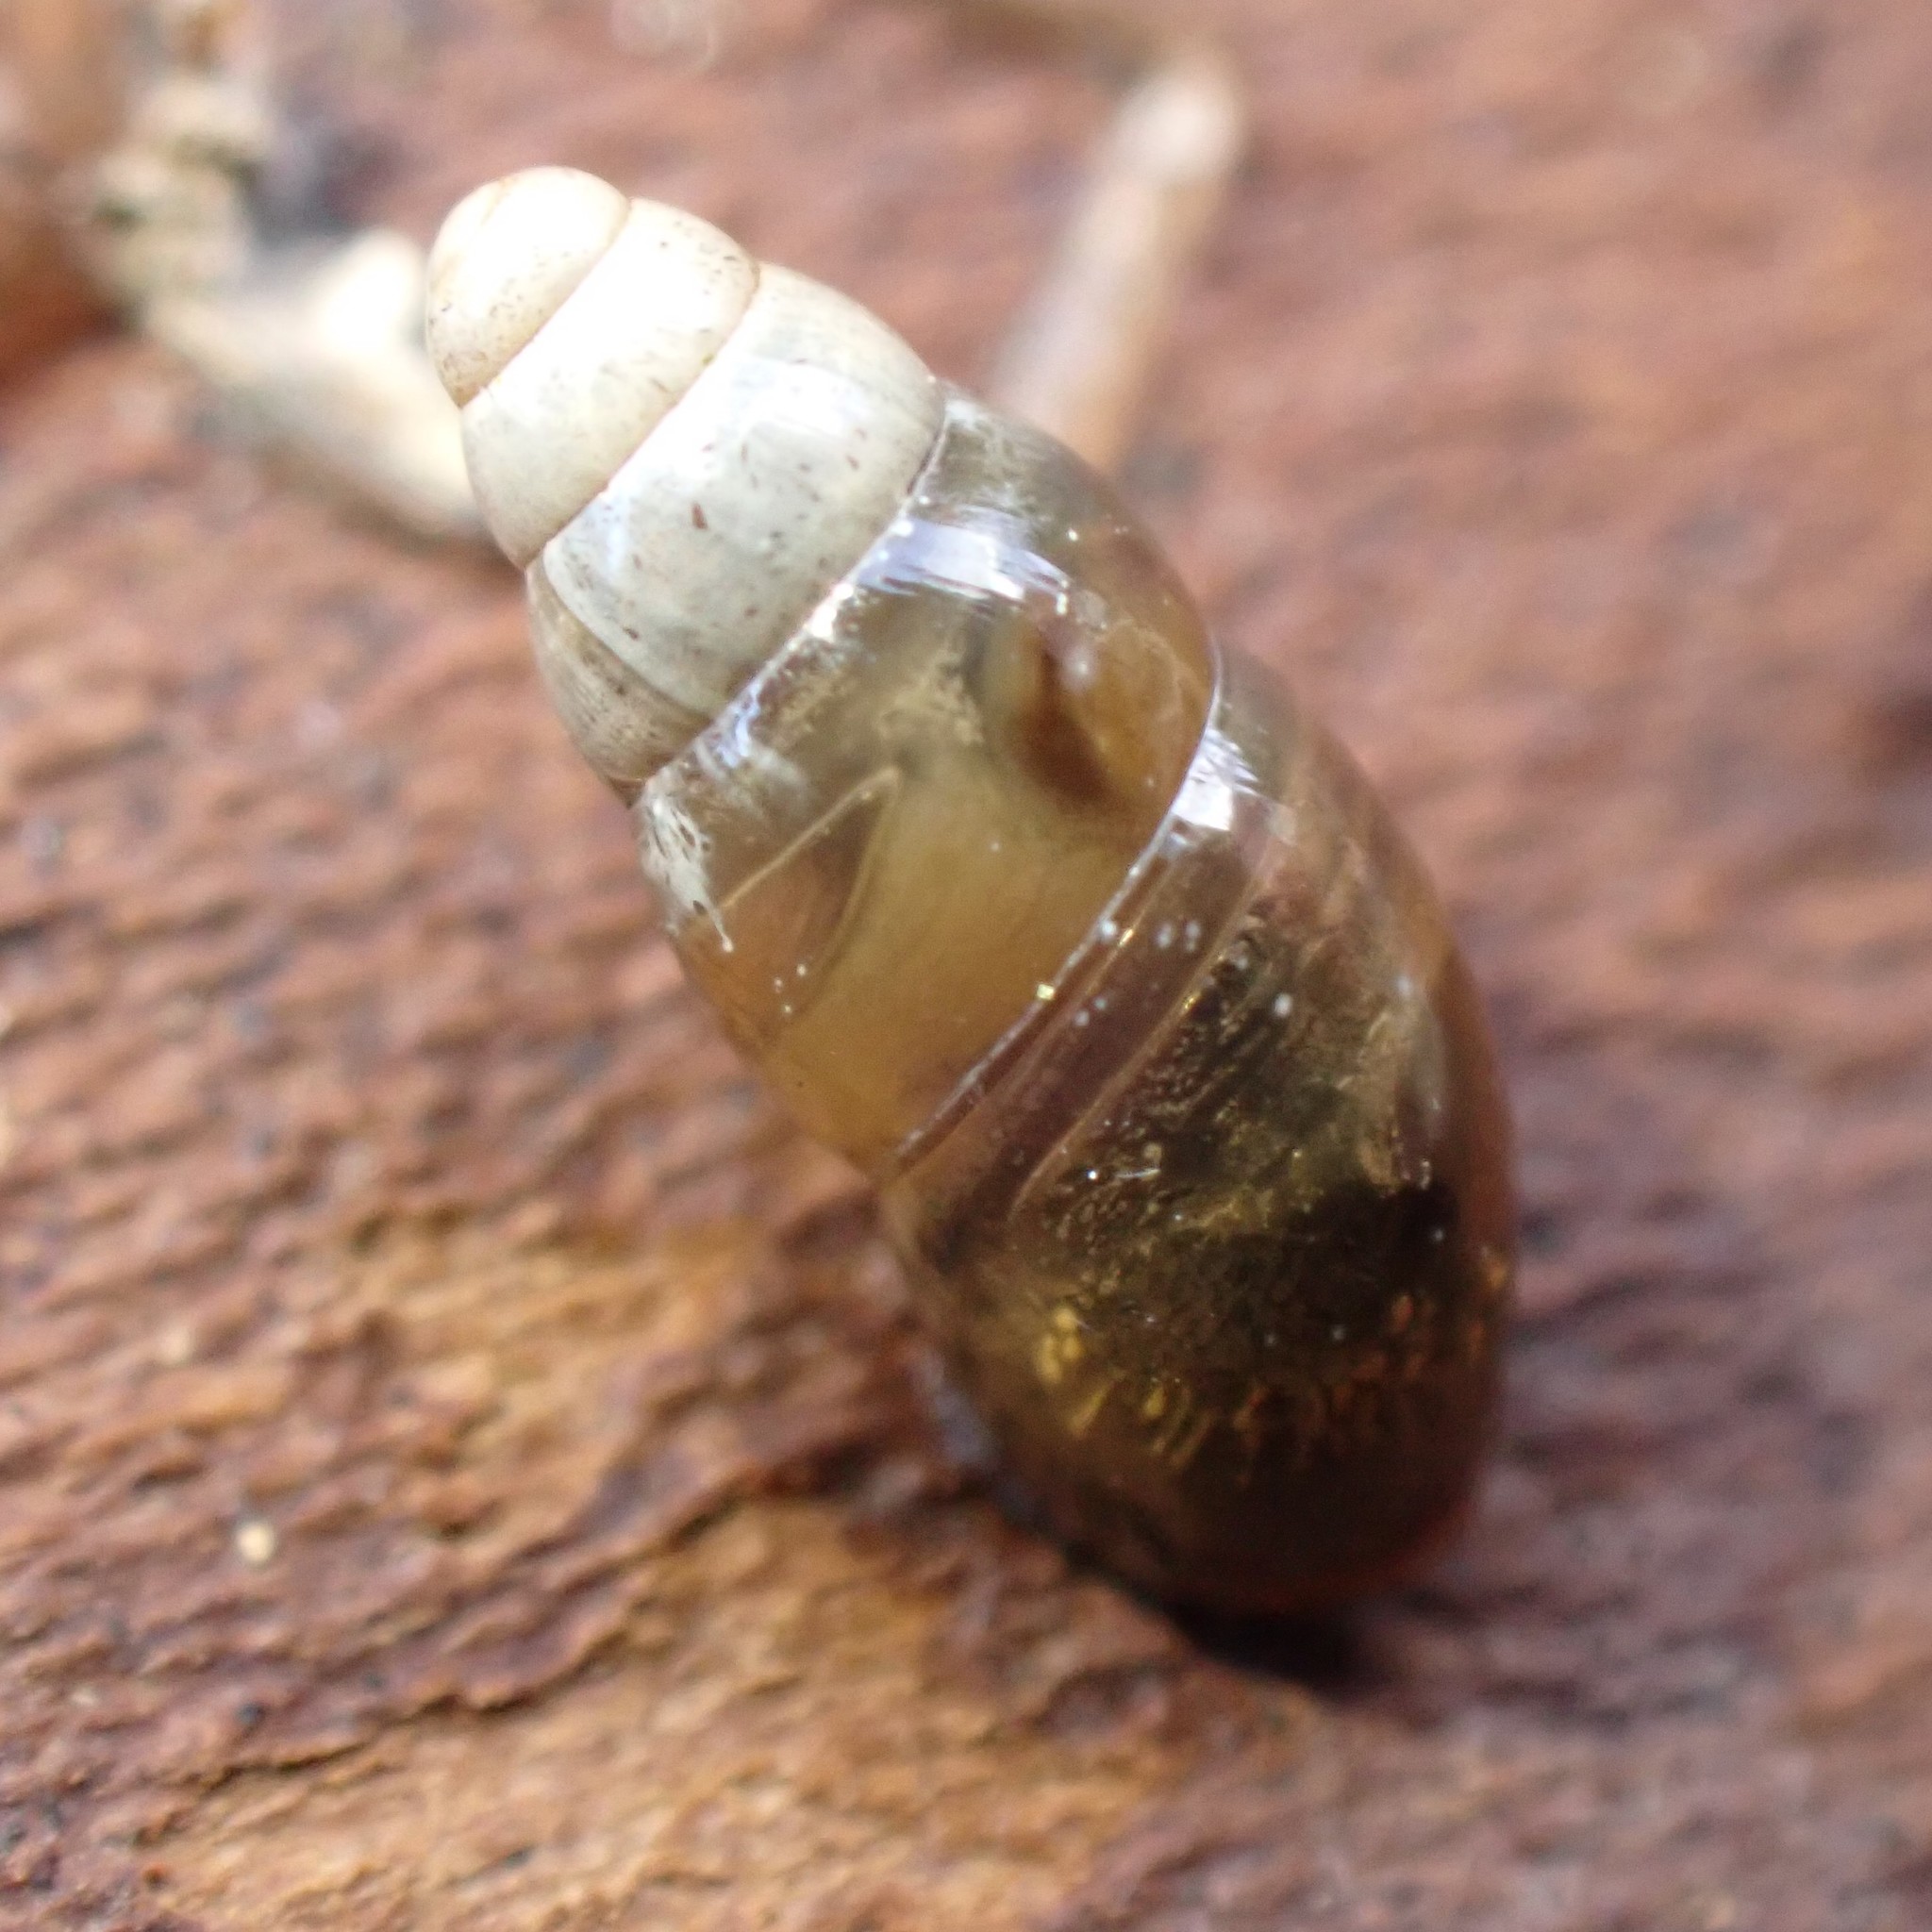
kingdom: Animalia
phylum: Mollusca
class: Gastropoda
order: Stylommatophora
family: Cochlicopidae
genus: Cochlicopa
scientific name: Cochlicopa lubrica
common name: Glossy pillar snail
